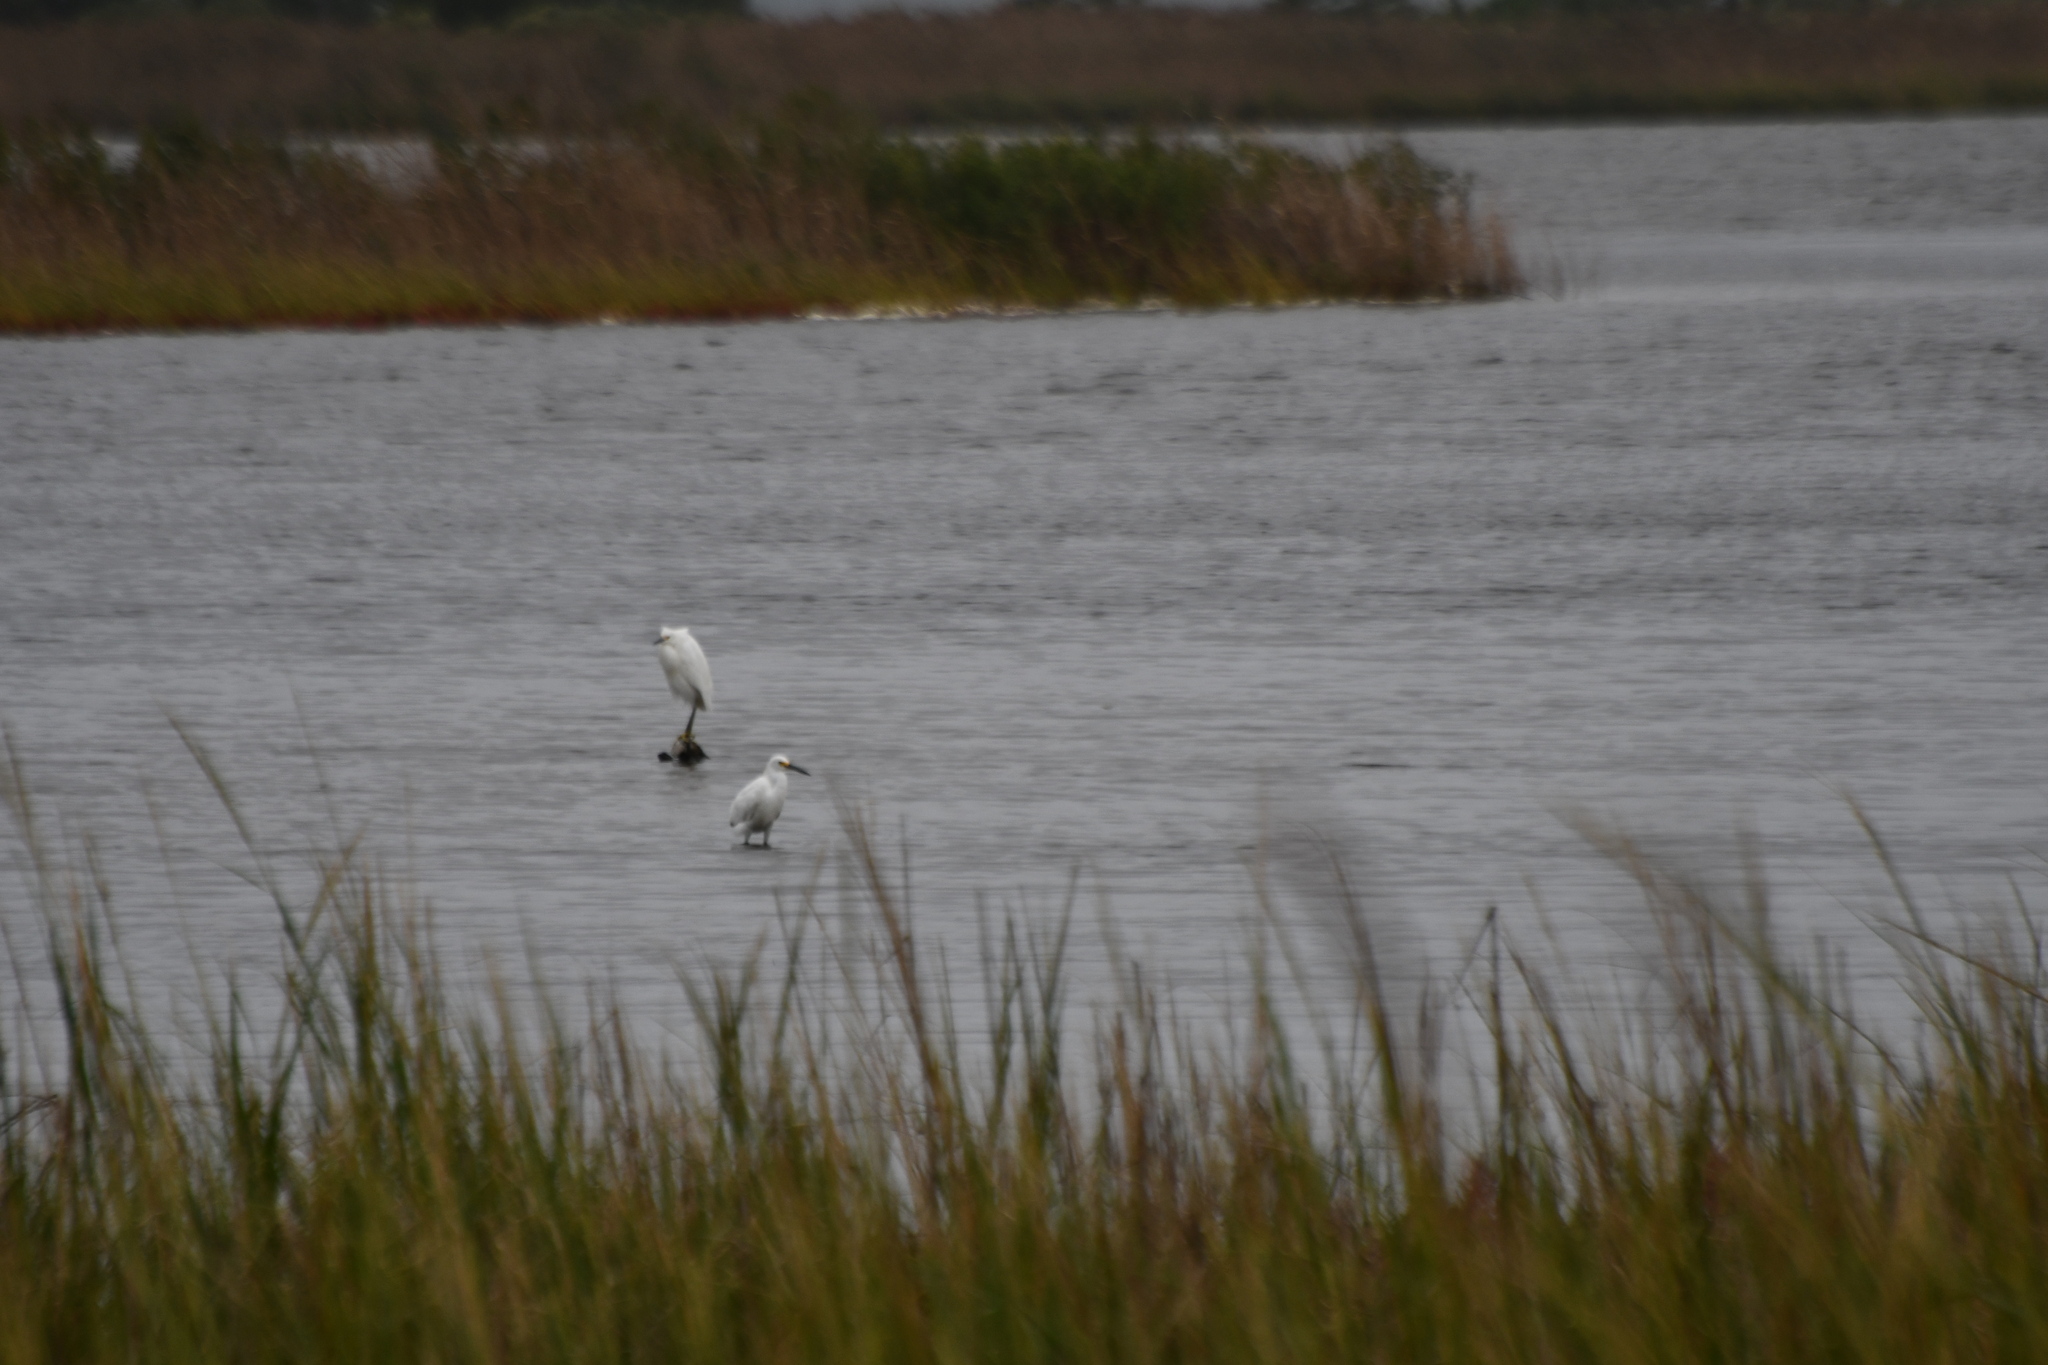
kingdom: Animalia
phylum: Chordata
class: Aves
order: Pelecaniformes
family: Ardeidae
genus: Egretta
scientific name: Egretta thula
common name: Snowy egret
